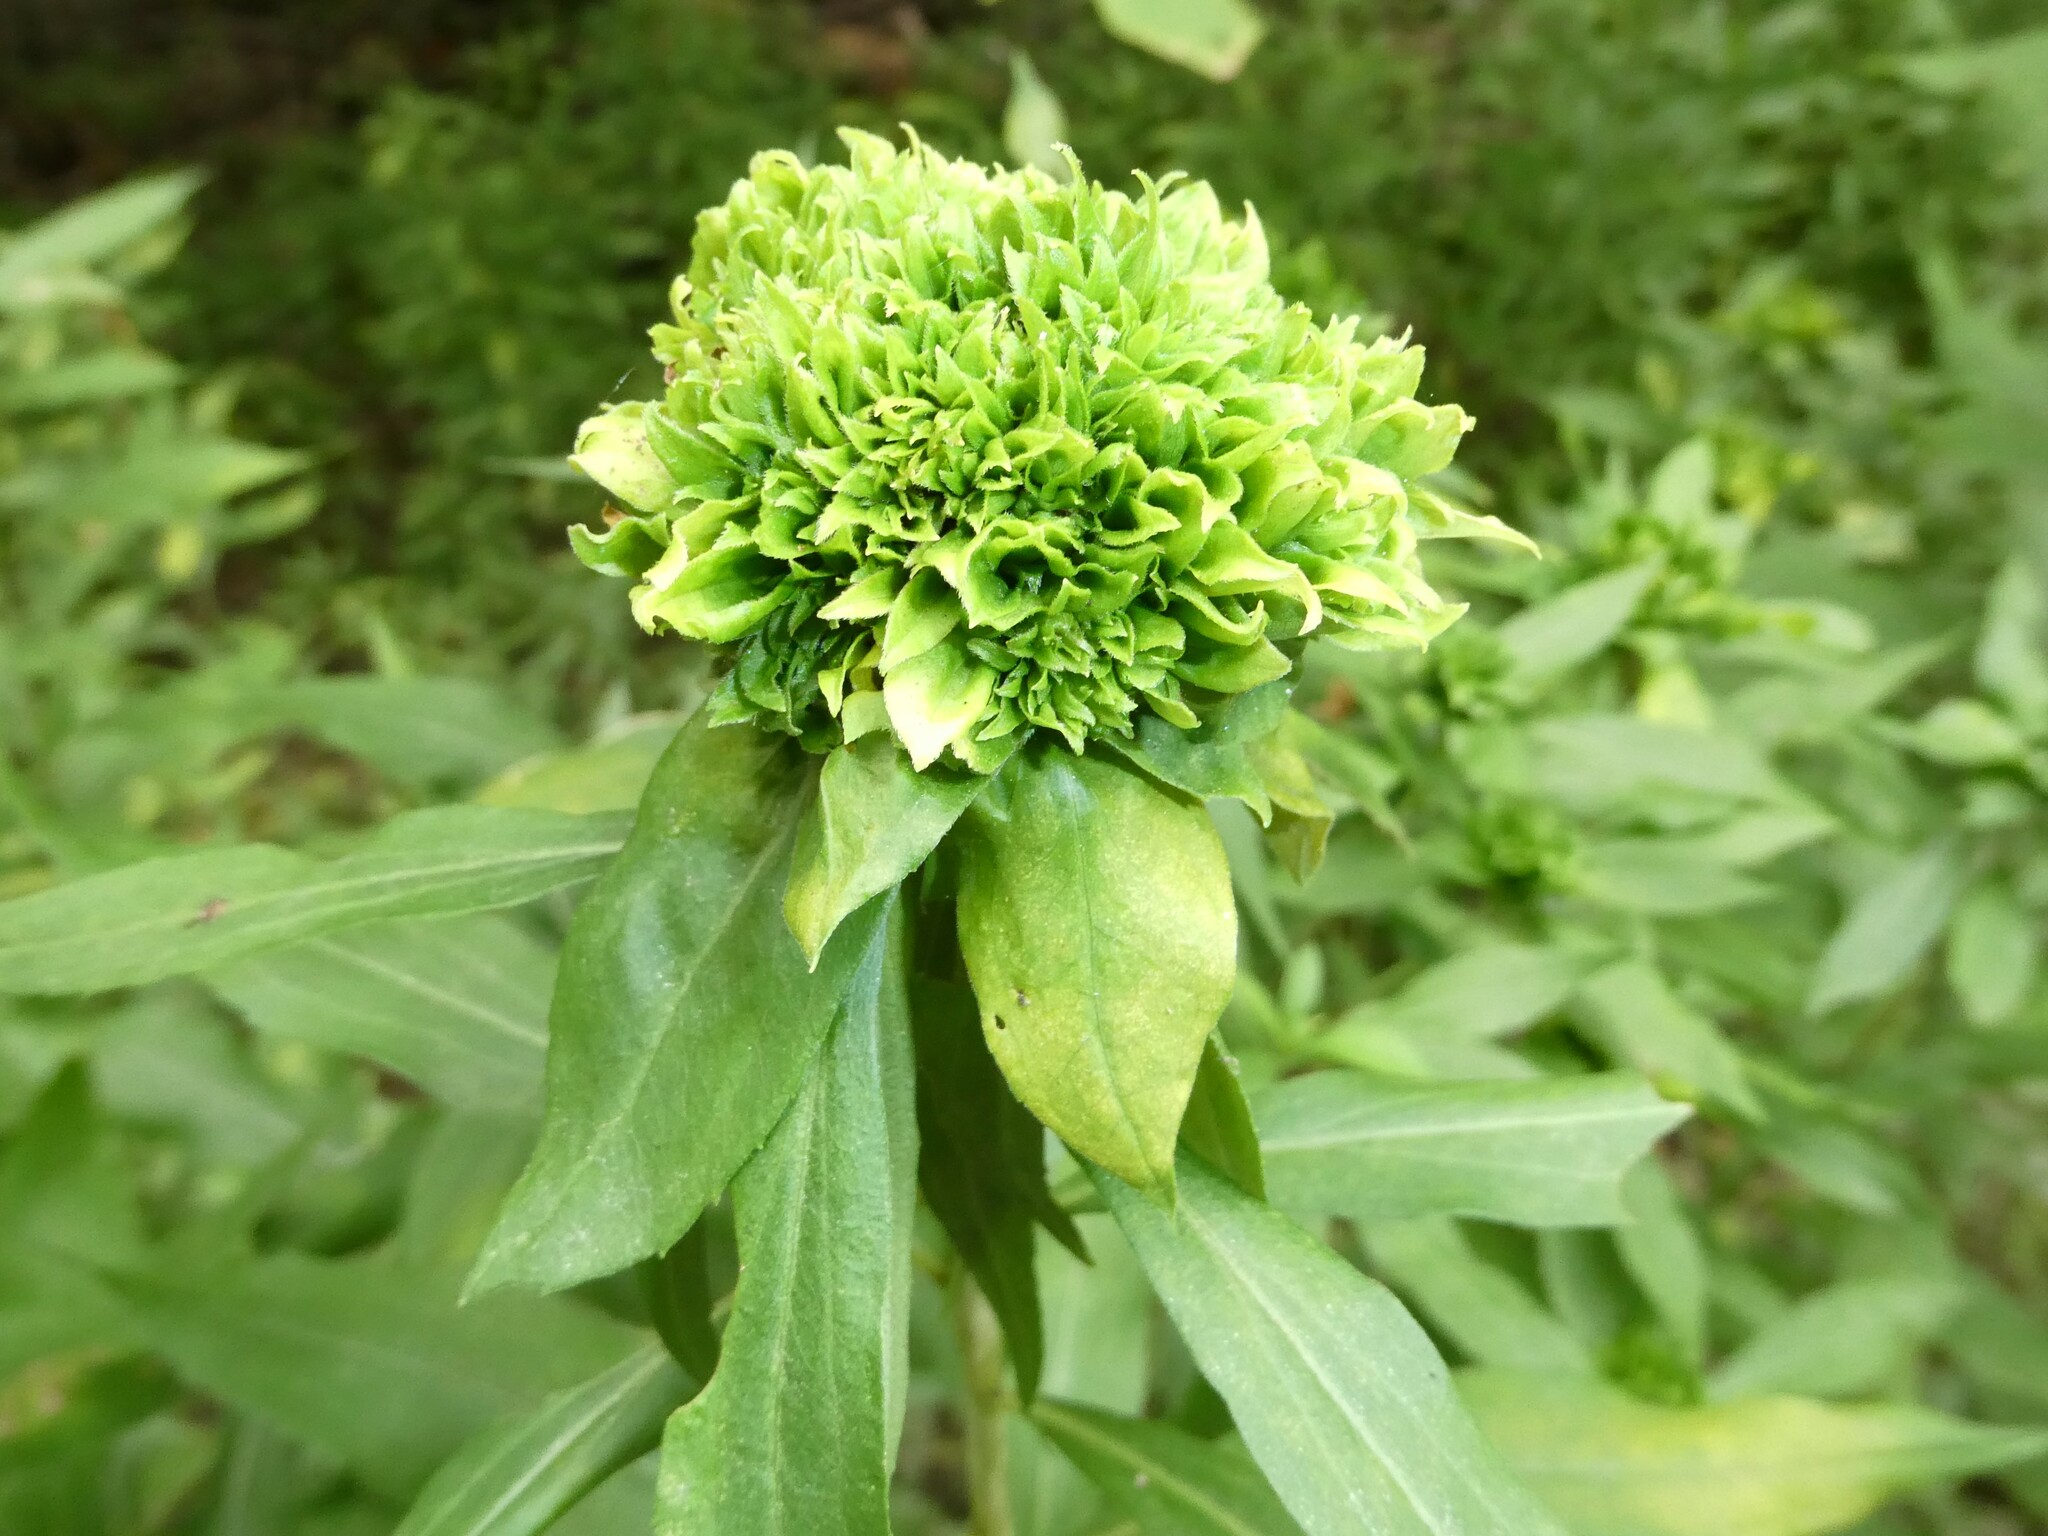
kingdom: Animalia
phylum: Arthropoda
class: Insecta
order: Diptera
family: Cecidomyiidae
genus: Rhopalomyia
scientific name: Rhopalomyia capitata
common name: Giant goldenrod bunch gall midge
